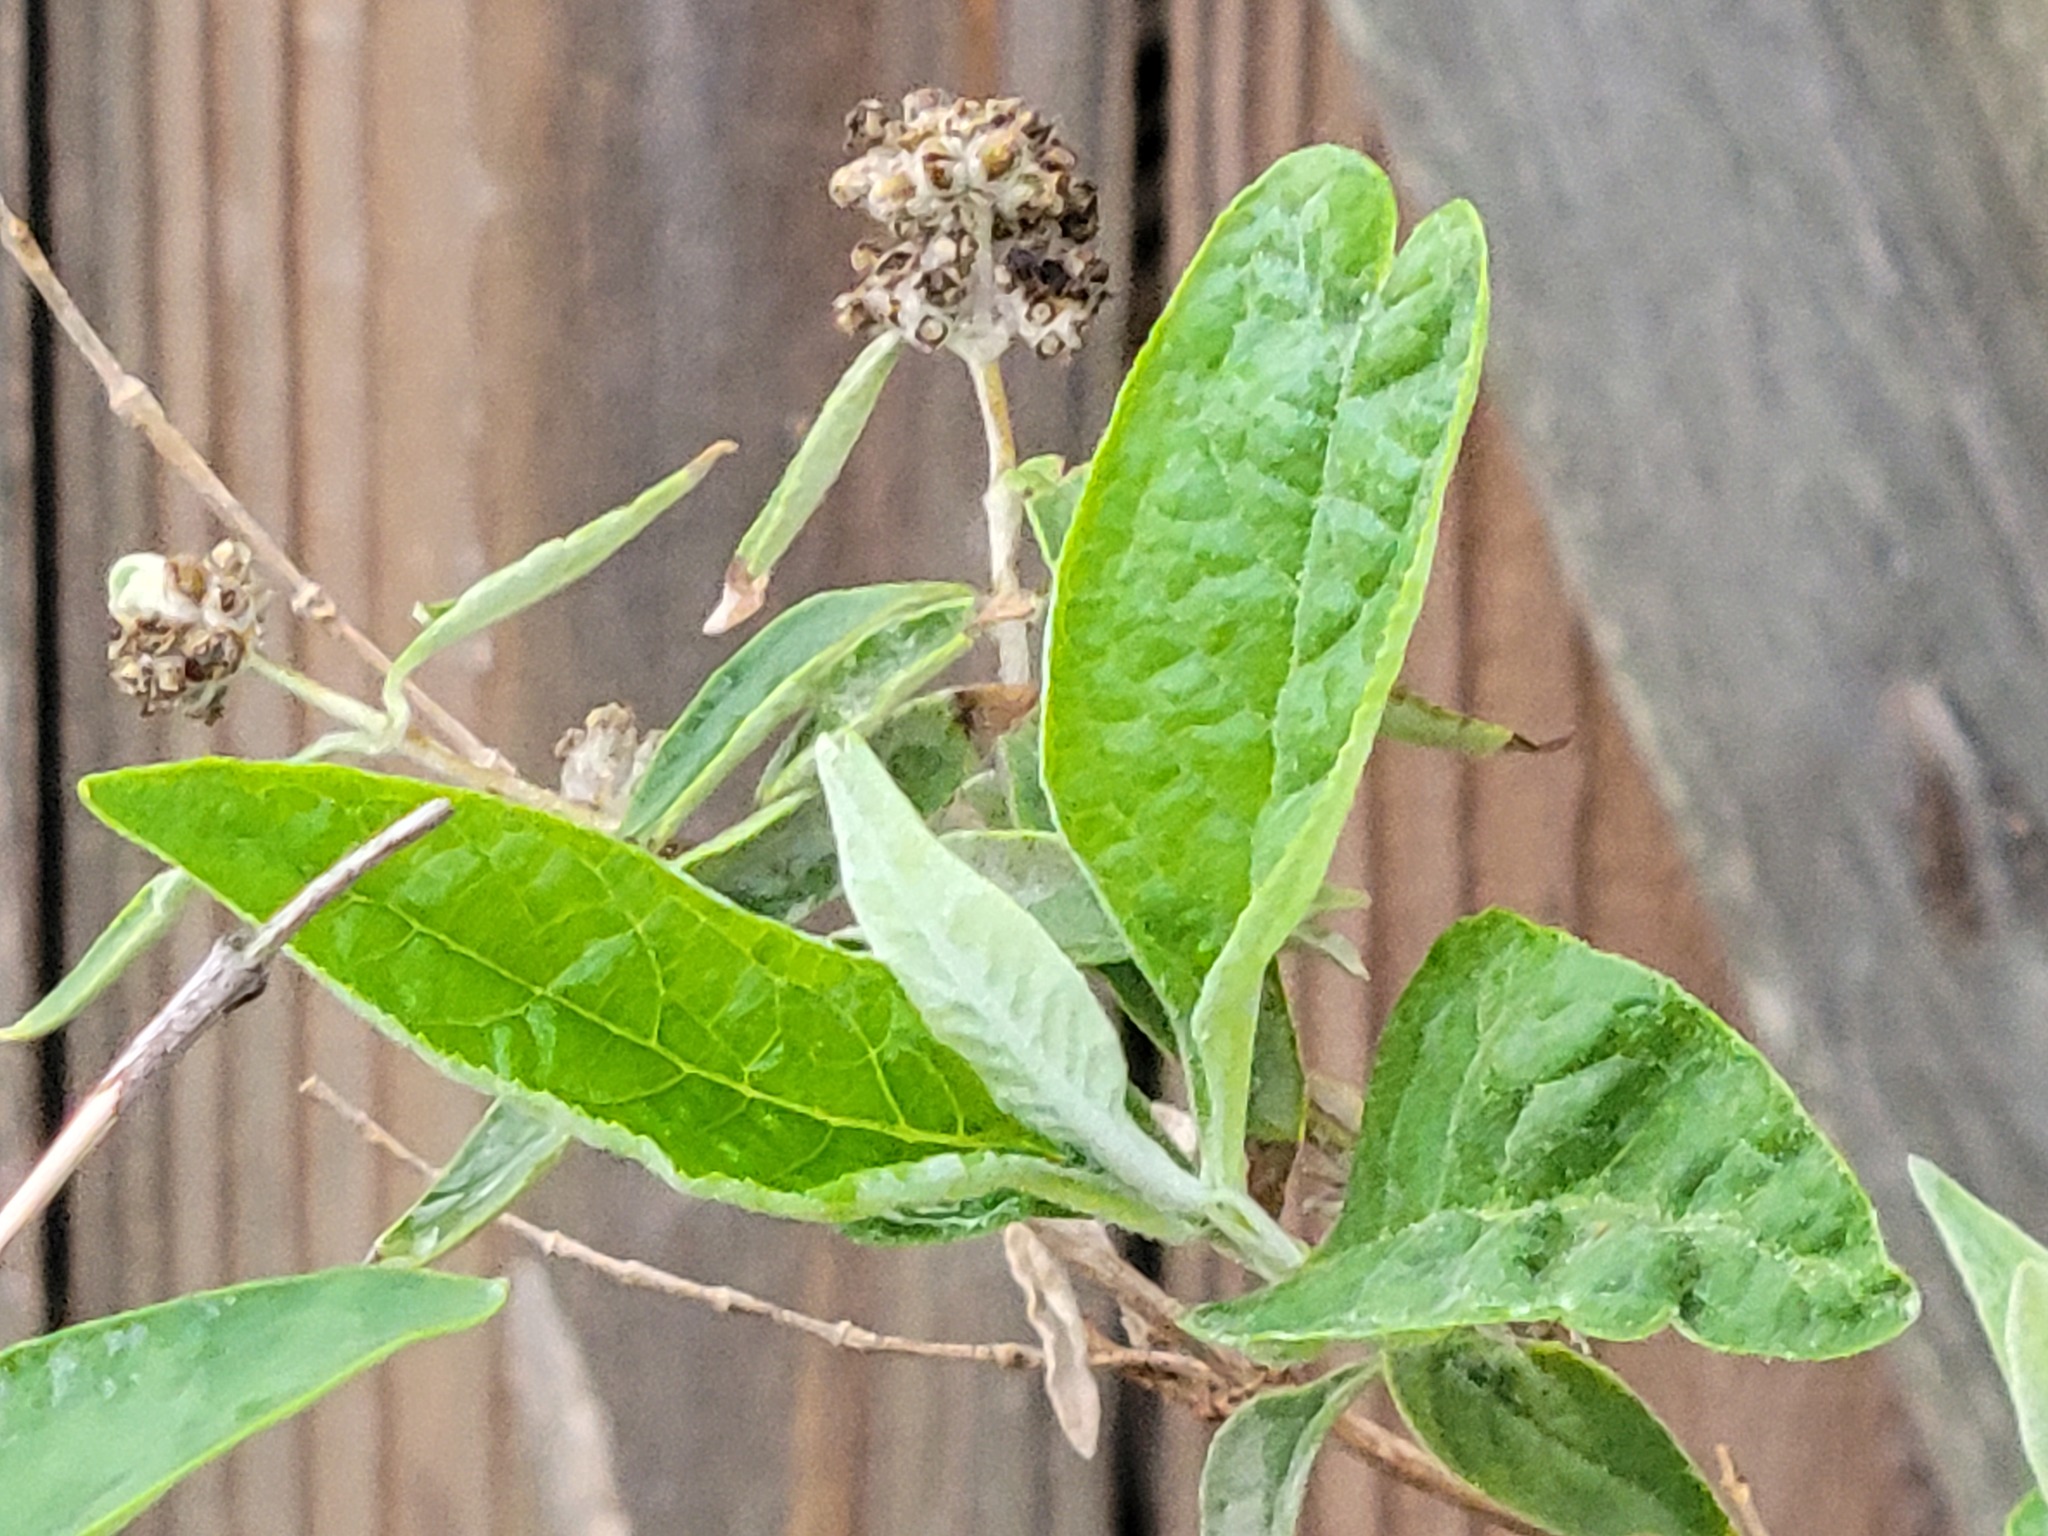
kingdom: Plantae
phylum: Tracheophyta
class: Magnoliopsida
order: Lamiales
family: Scrophulariaceae
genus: Buddleja
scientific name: Buddleja sessiliflora
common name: Rio grande butterfly-bush
